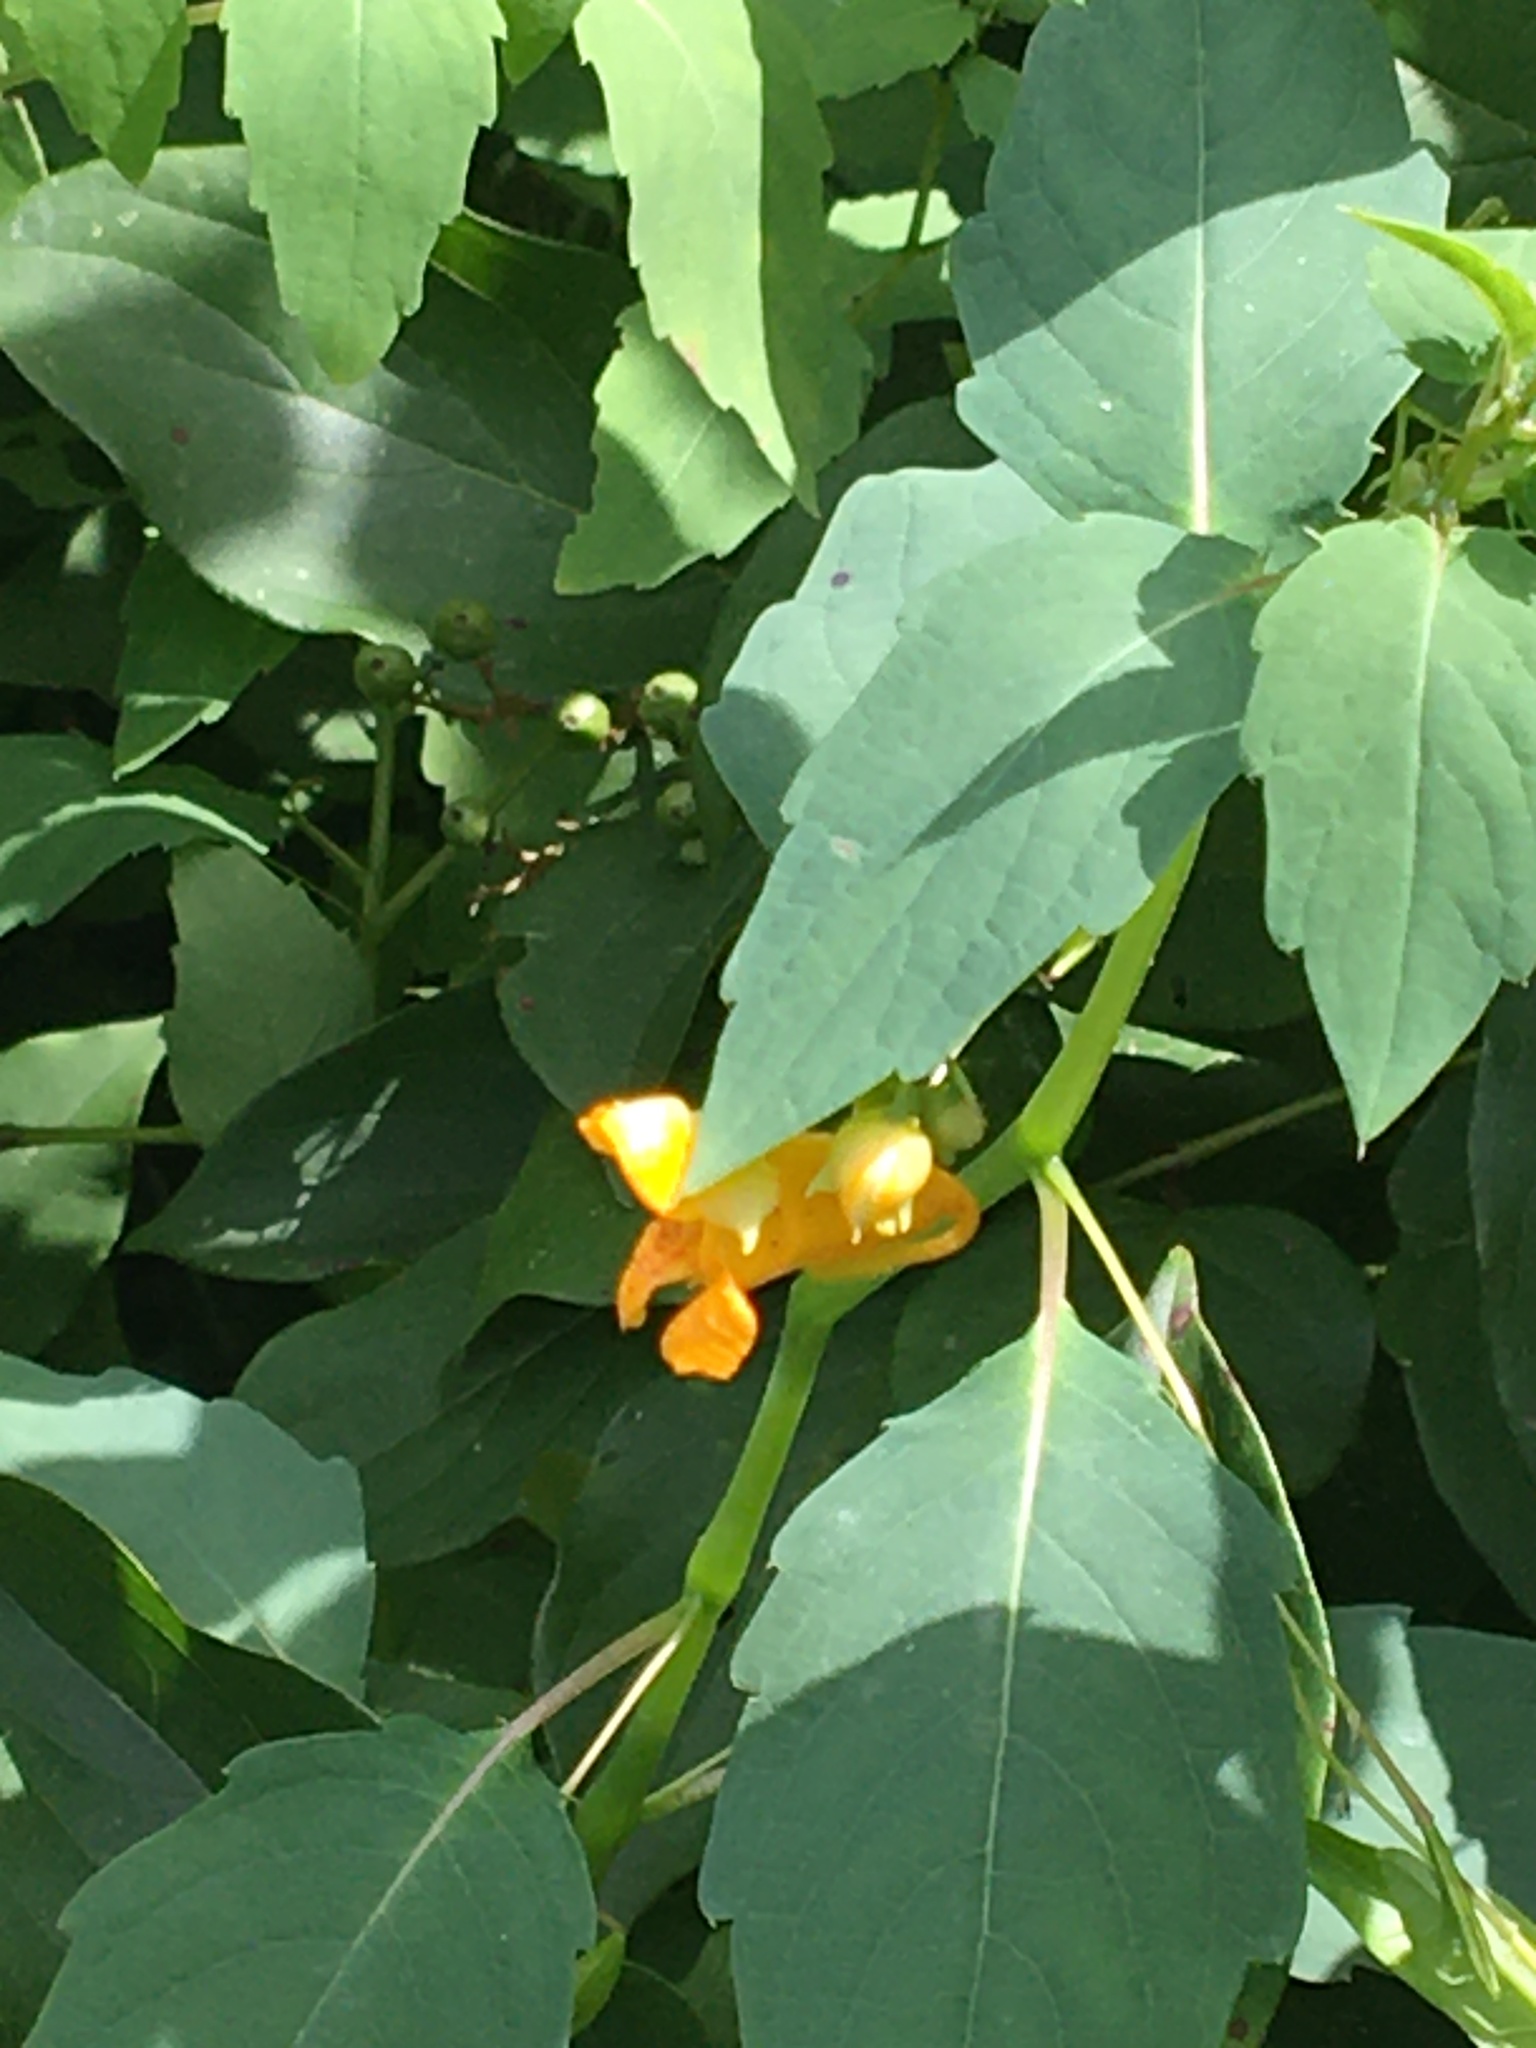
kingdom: Plantae
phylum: Tracheophyta
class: Magnoliopsida
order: Ericales
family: Balsaminaceae
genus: Impatiens
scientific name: Impatiens capensis
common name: Orange balsam
